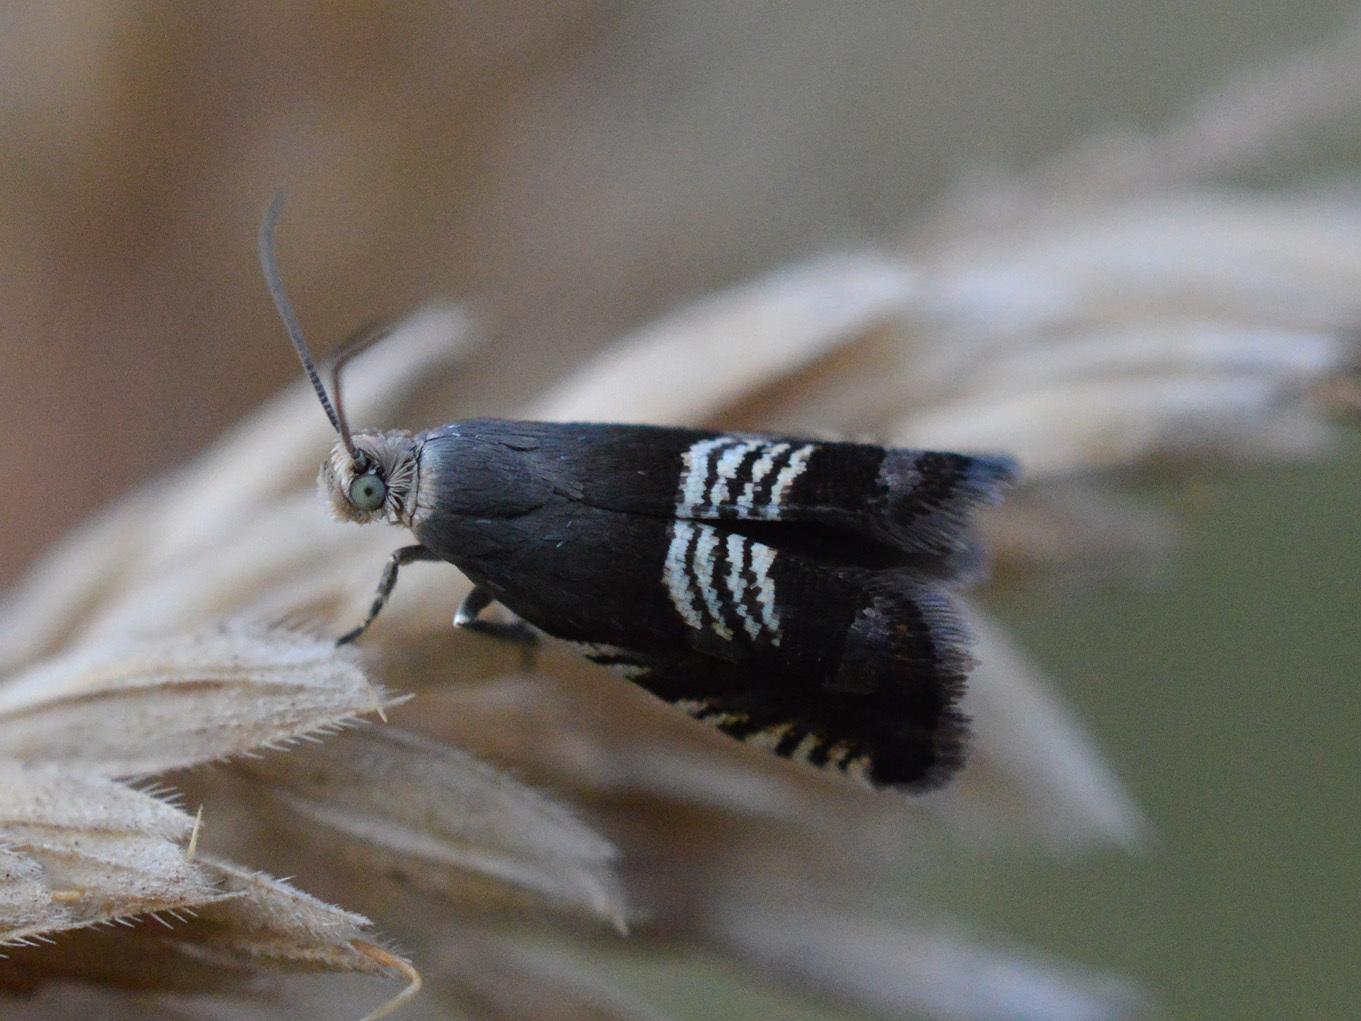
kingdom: Animalia
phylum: Arthropoda
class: Insecta
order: Lepidoptera
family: Tortricidae
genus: Grapholita
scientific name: Grapholita compositella
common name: Triple-stripe piercer
